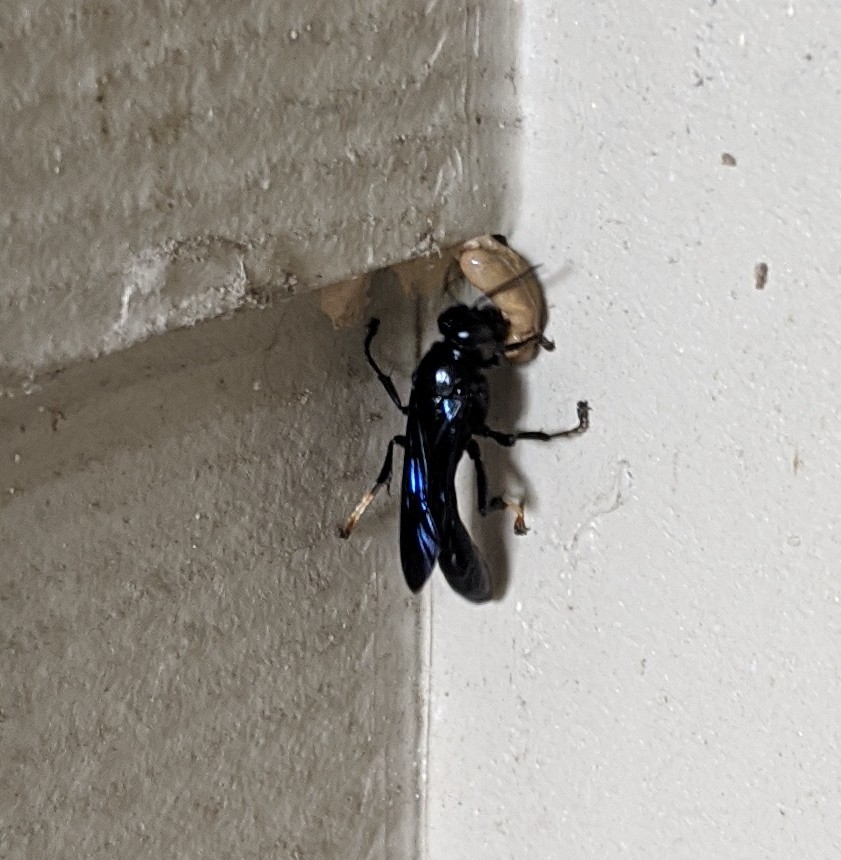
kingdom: Animalia
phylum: Arthropoda
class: Insecta
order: Hymenoptera
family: Crabronidae
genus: Trypoxylon
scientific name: Trypoxylon politum
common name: Organ-pipe mud-dauber wasp
